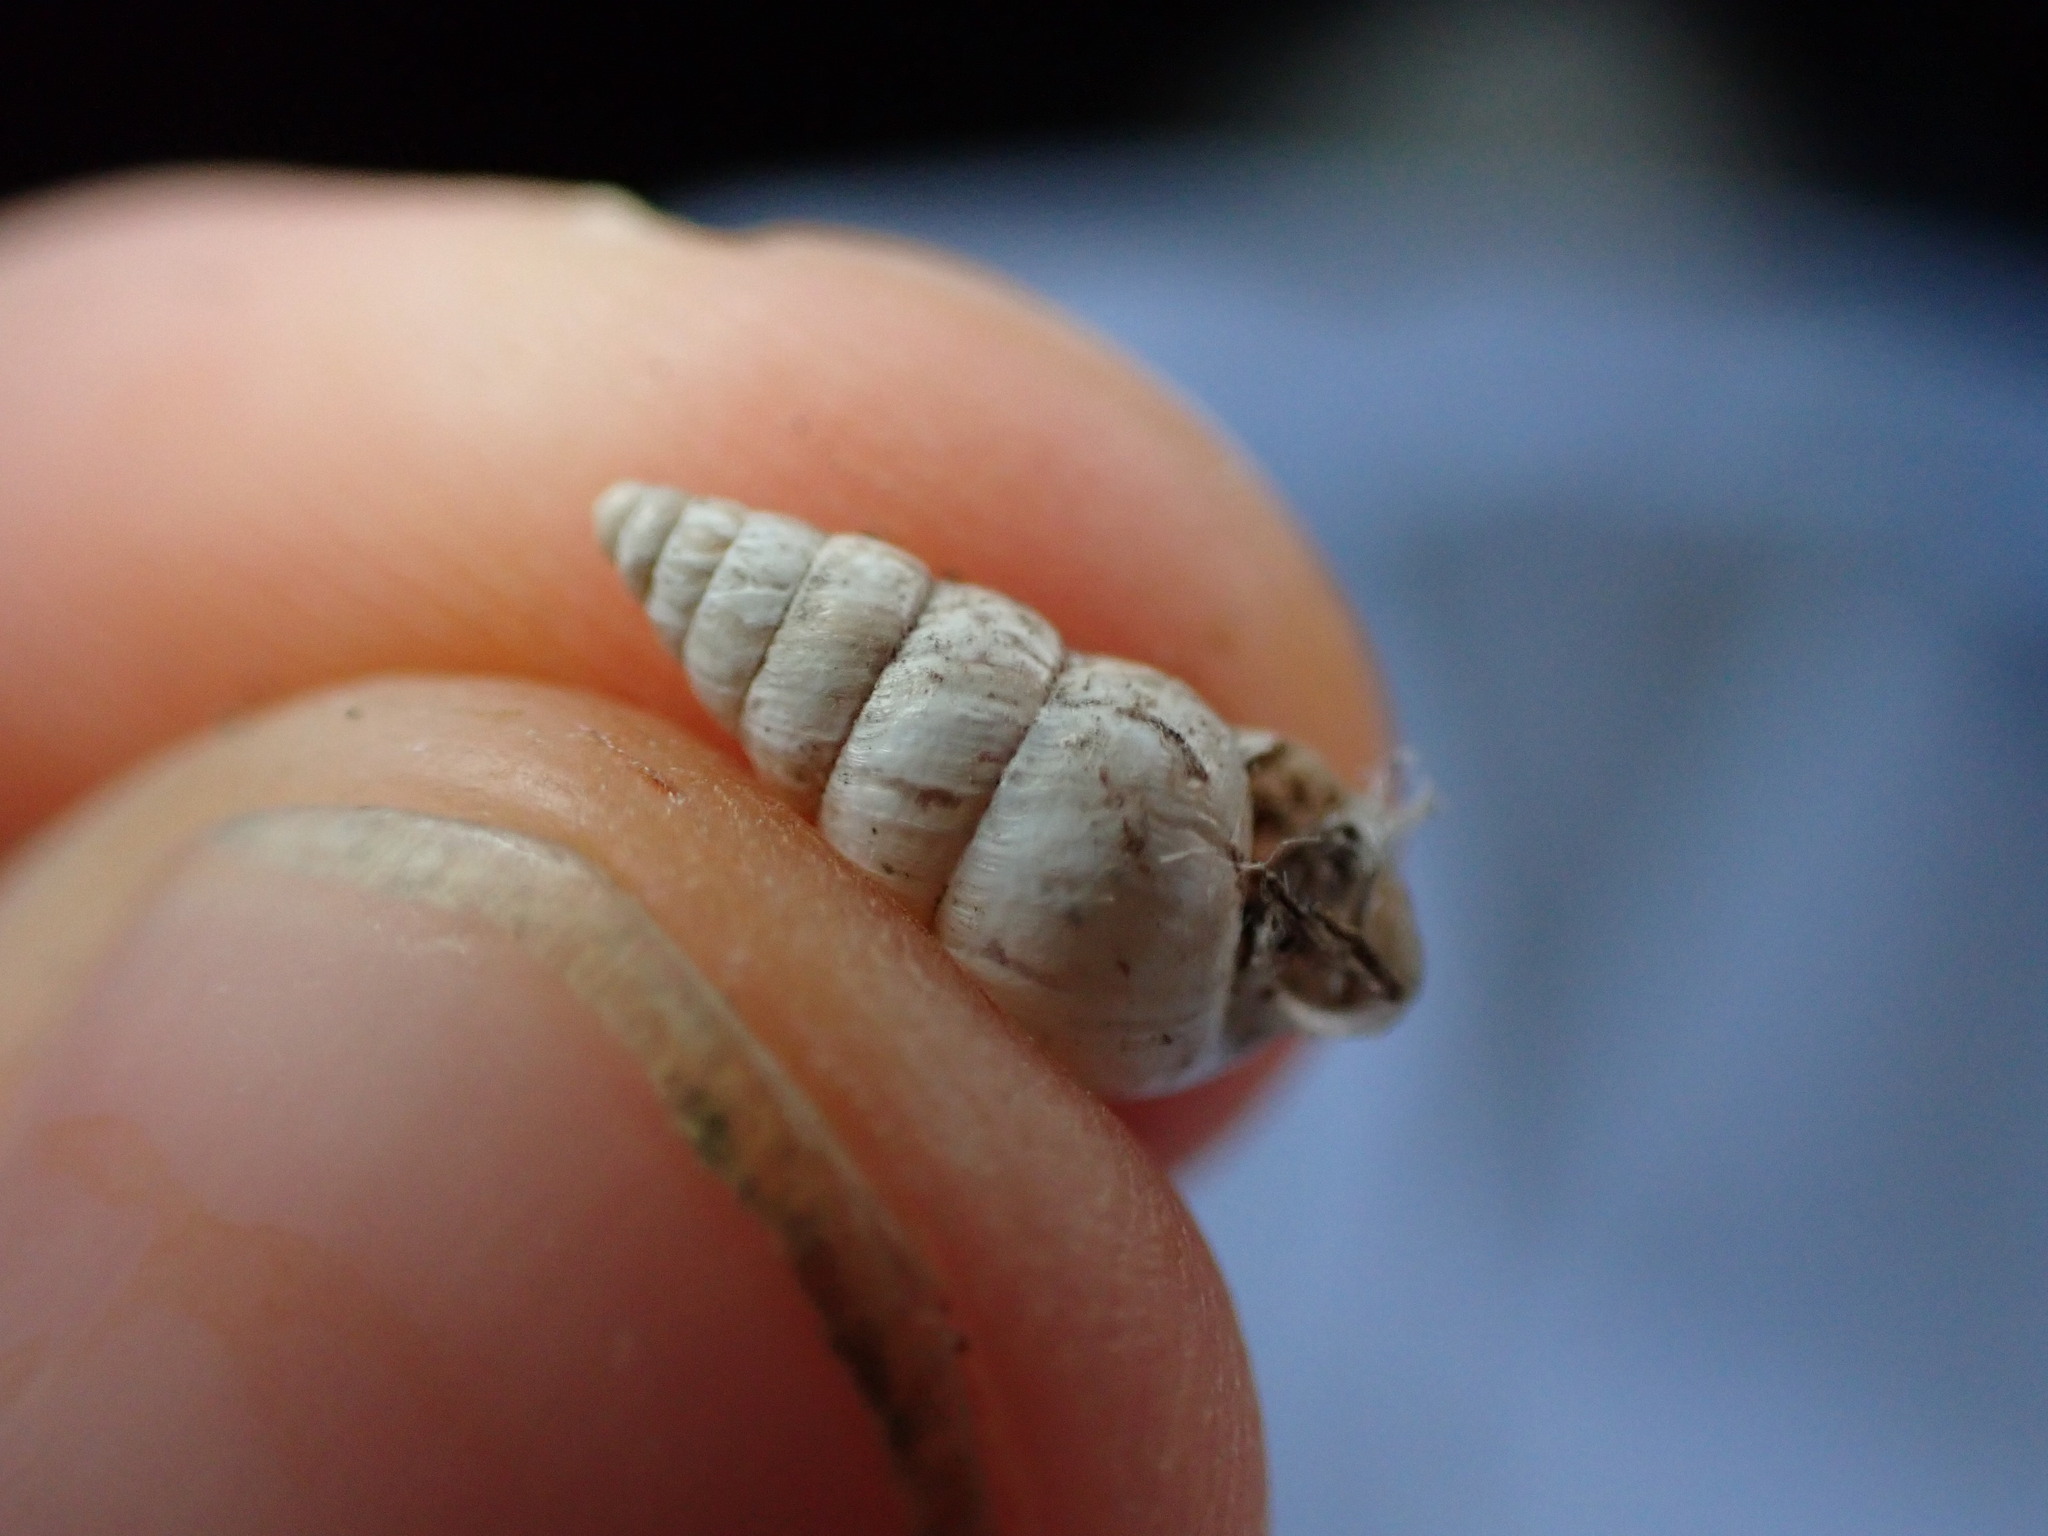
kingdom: Animalia
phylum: Mollusca
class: Gastropoda
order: Stylommatophora
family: Geomitridae
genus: Cochlicella
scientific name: Cochlicella acuta
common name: Pointed snail
